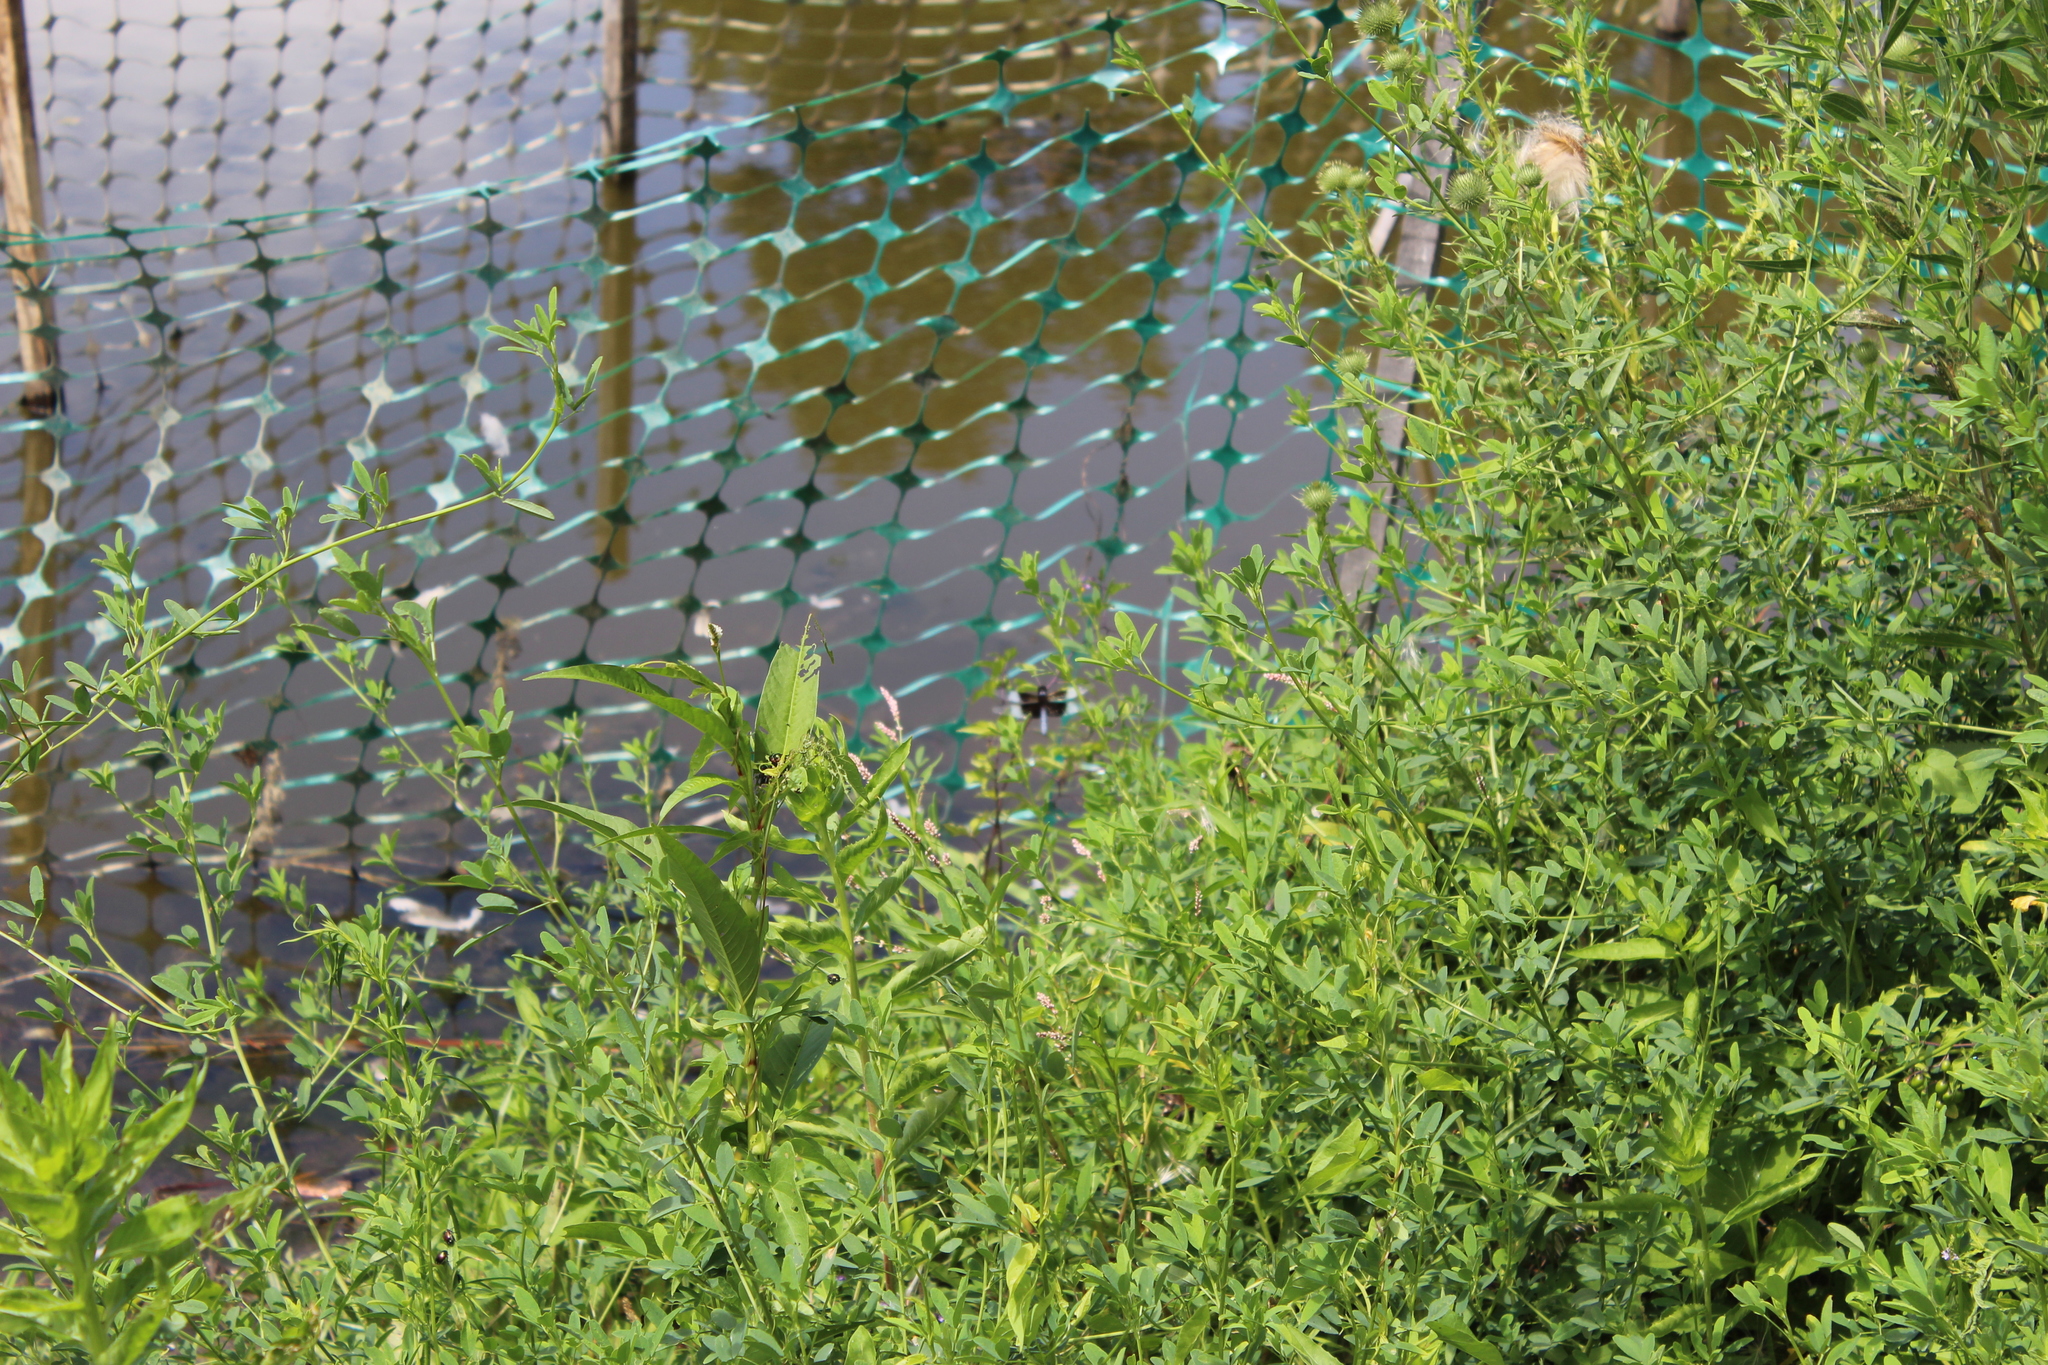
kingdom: Animalia
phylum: Arthropoda
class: Insecta
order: Odonata
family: Libellulidae
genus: Libellula
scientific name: Libellula luctuosa
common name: Widow skimmer
